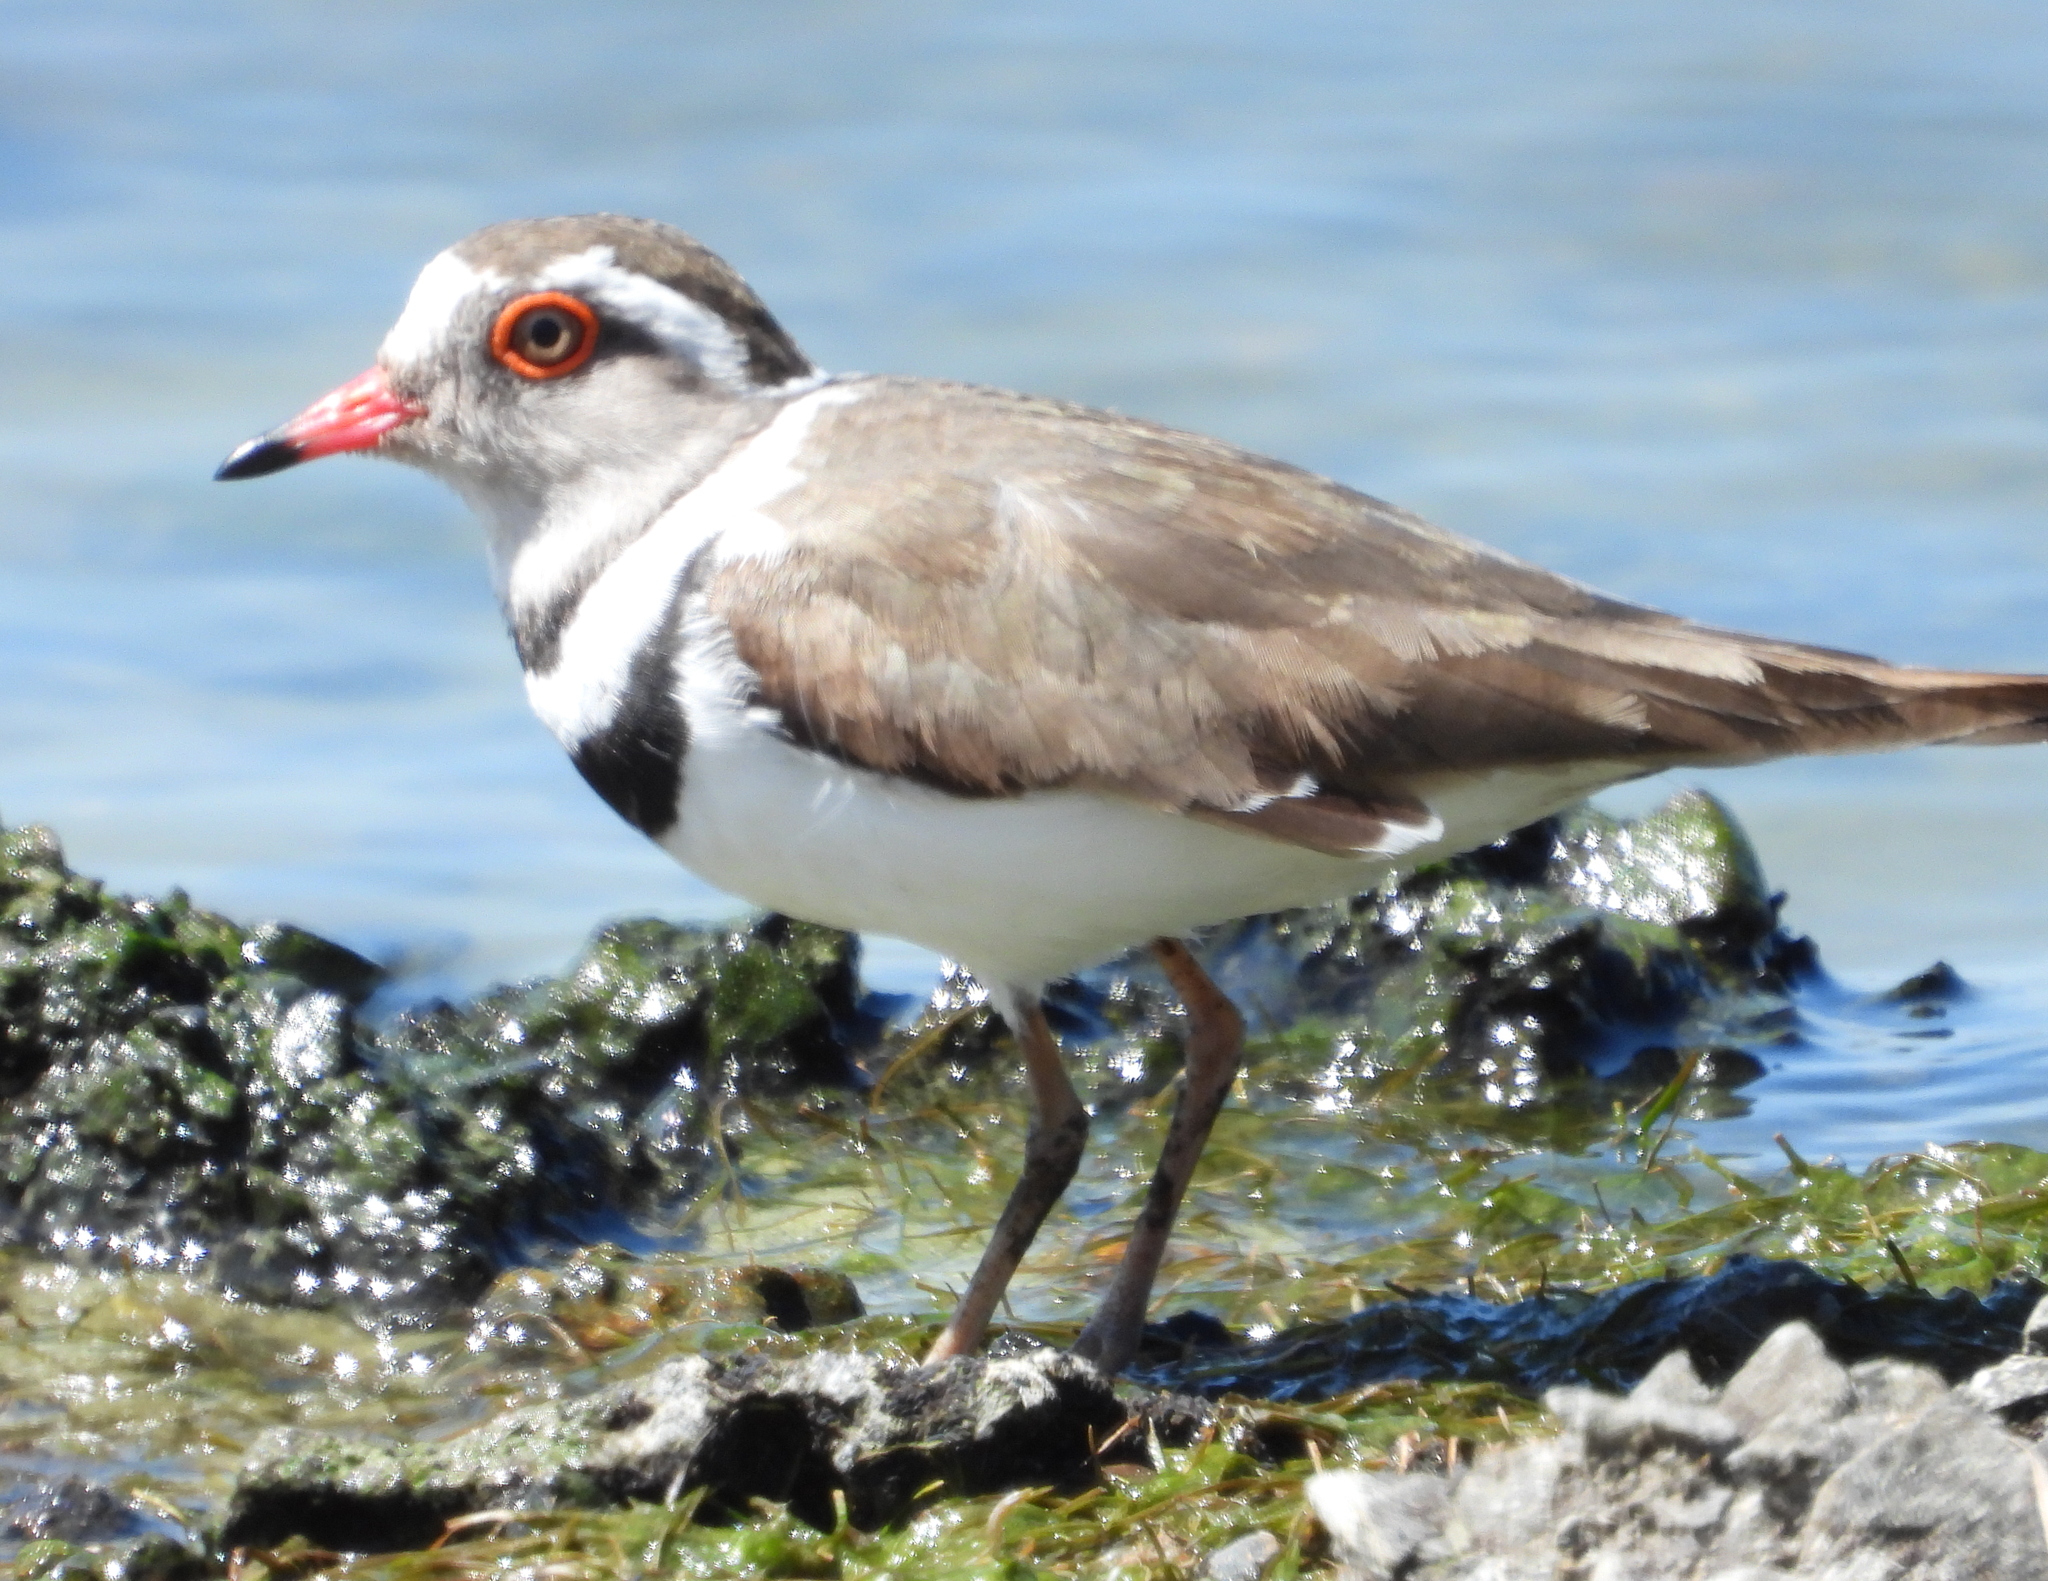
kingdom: Animalia
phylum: Chordata
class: Aves
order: Charadriiformes
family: Charadriidae
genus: Charadrius
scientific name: Charadrius tricollaris
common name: Three-banded plover
